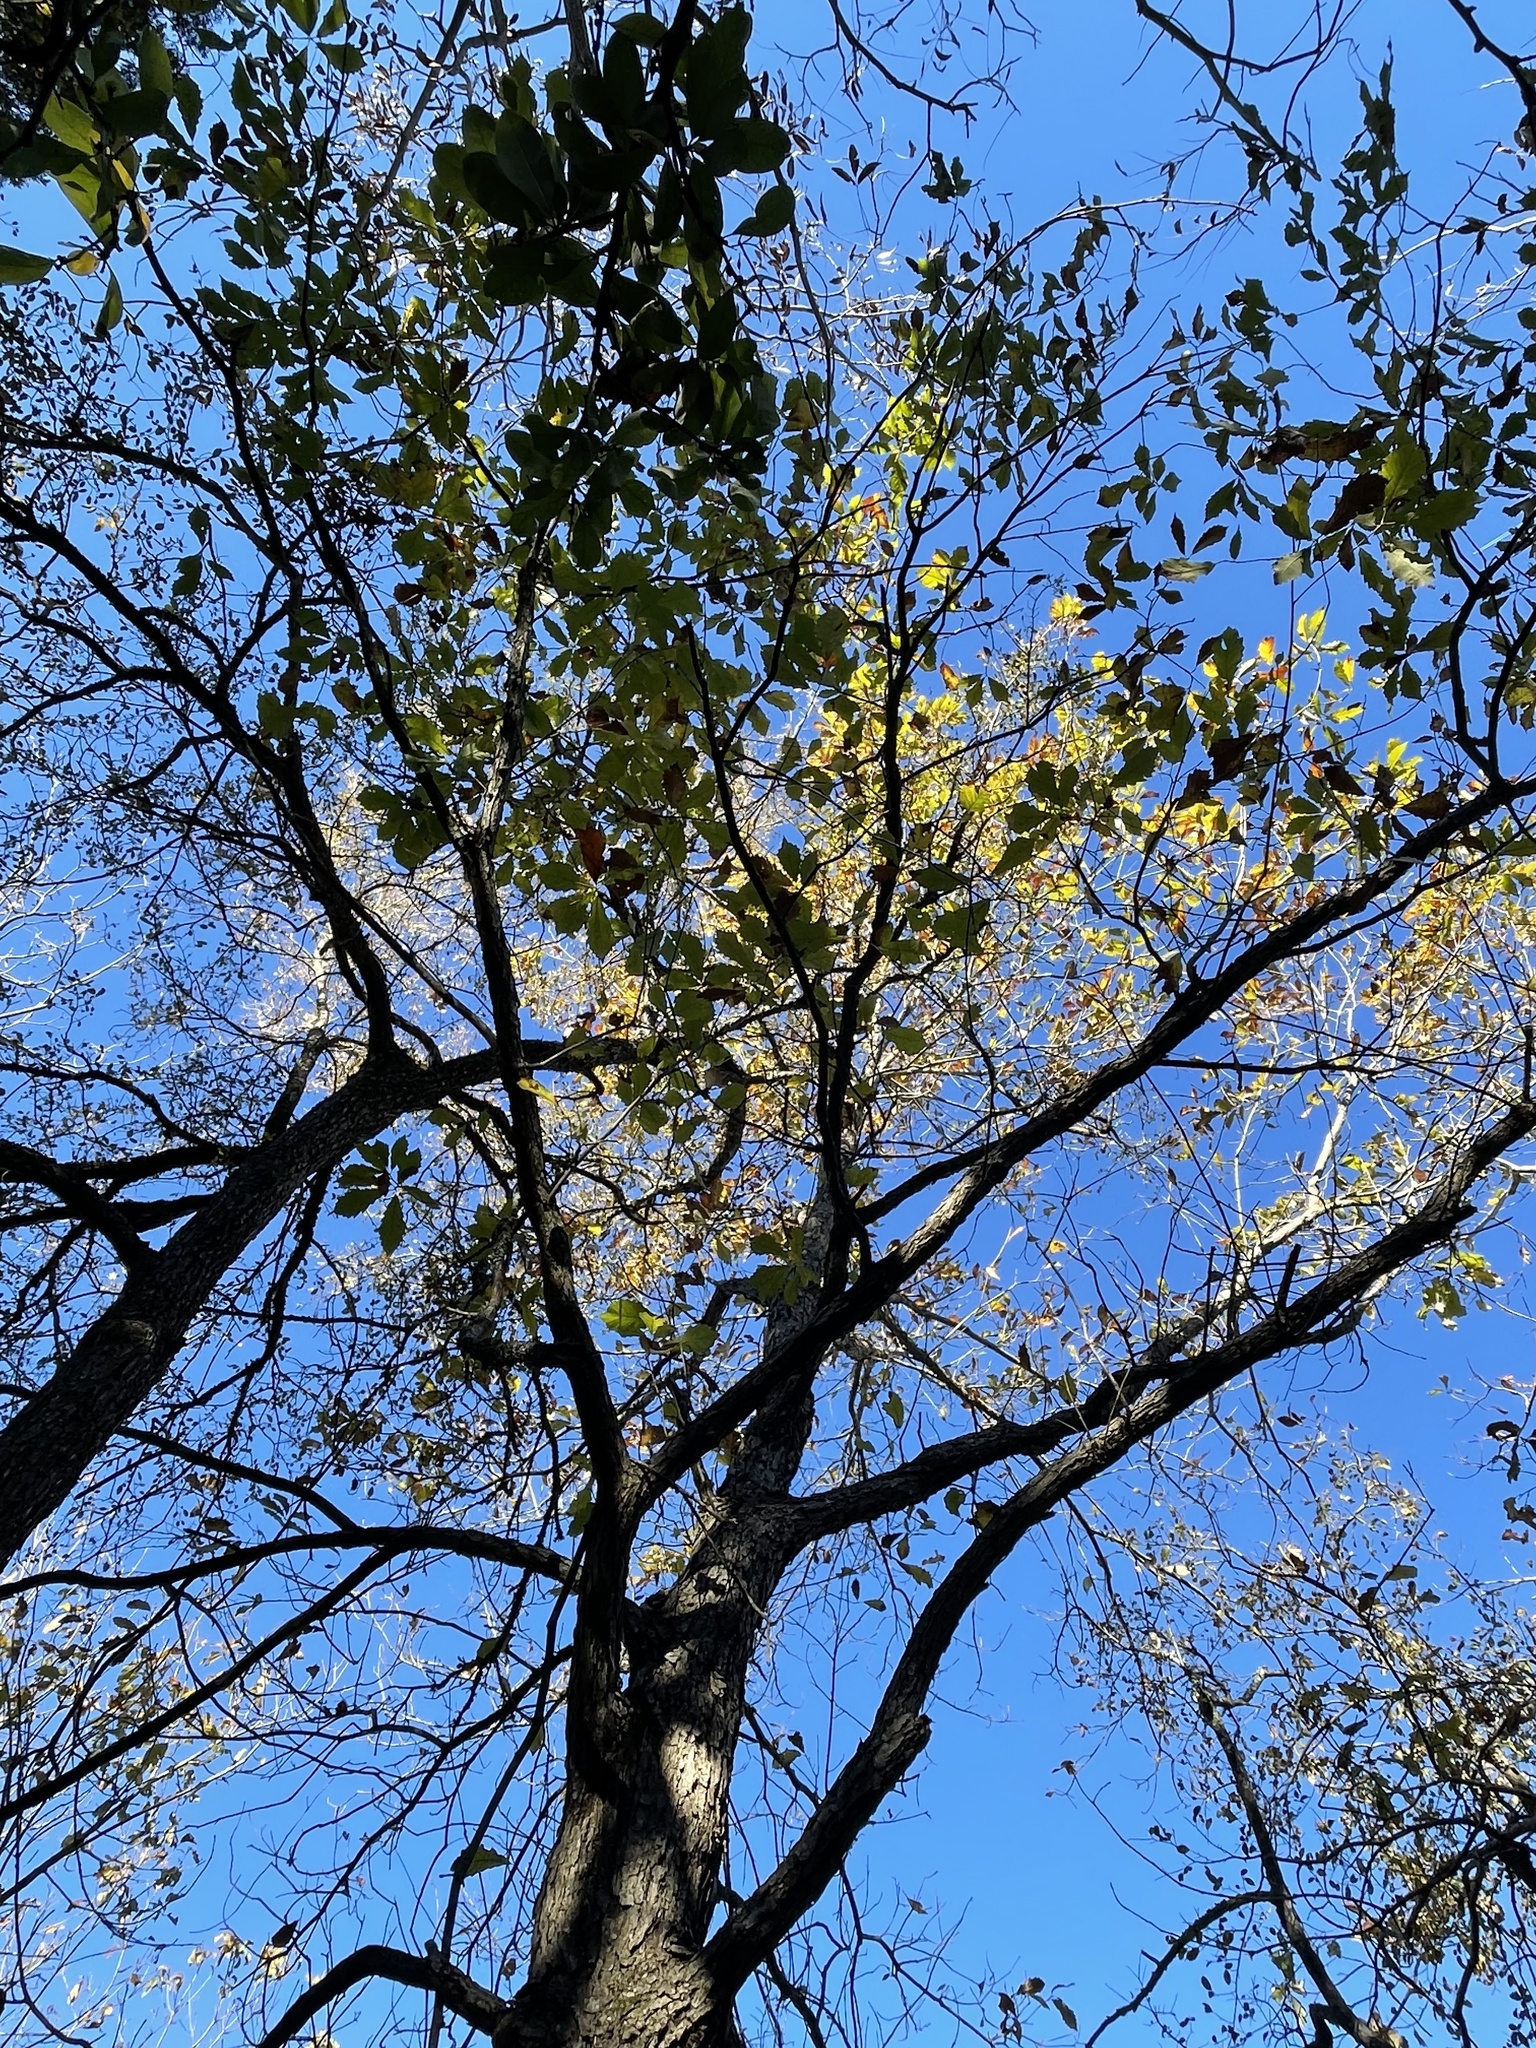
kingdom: Plantae
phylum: Tracheophyta
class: Magnoliopsida
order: Fagales
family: Fagaceae
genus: Quercus
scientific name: Quercus muehlenbergii
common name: Chinkapin oak
